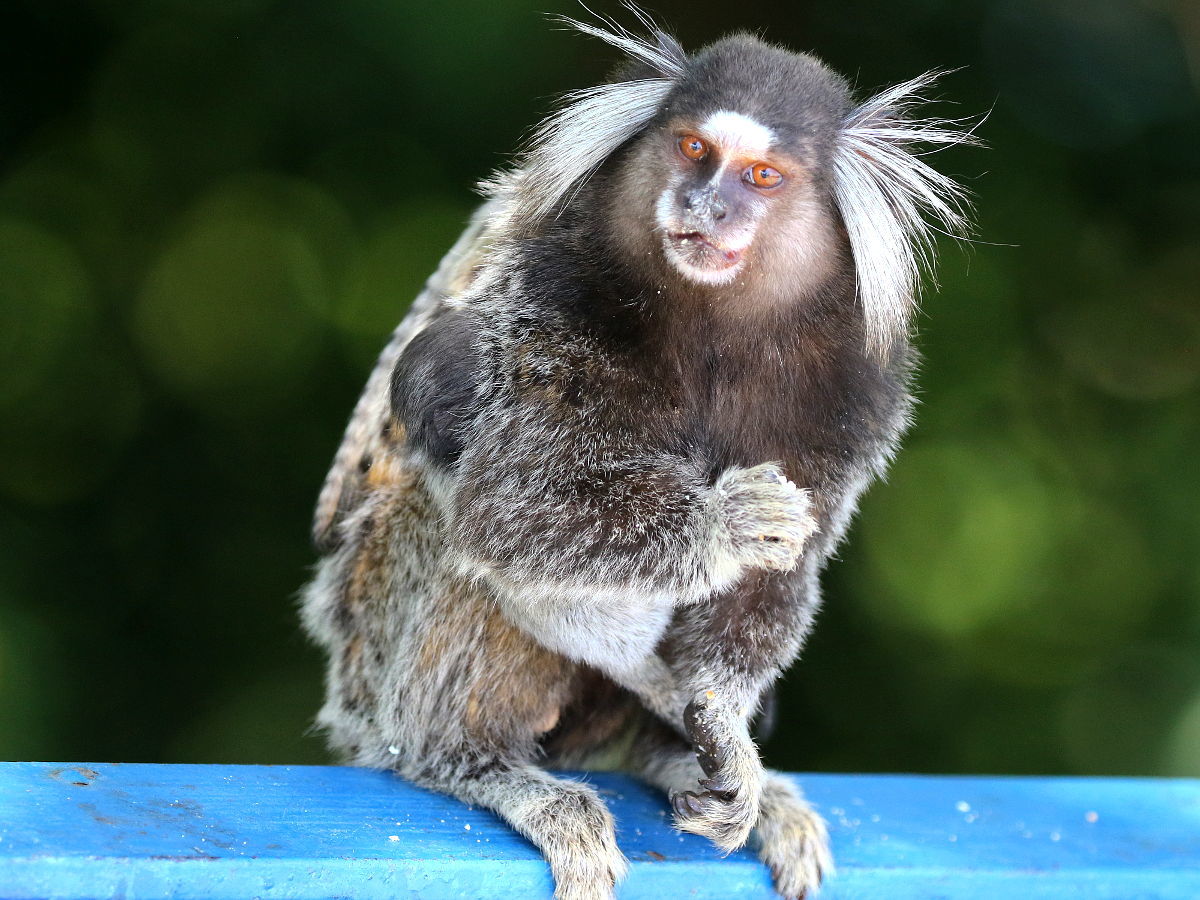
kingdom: Animalia
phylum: Chordata
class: Mammalia
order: Primates
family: Callitrichidae
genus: Callithrix
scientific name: Callithrix jacchus
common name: Common marmoset
